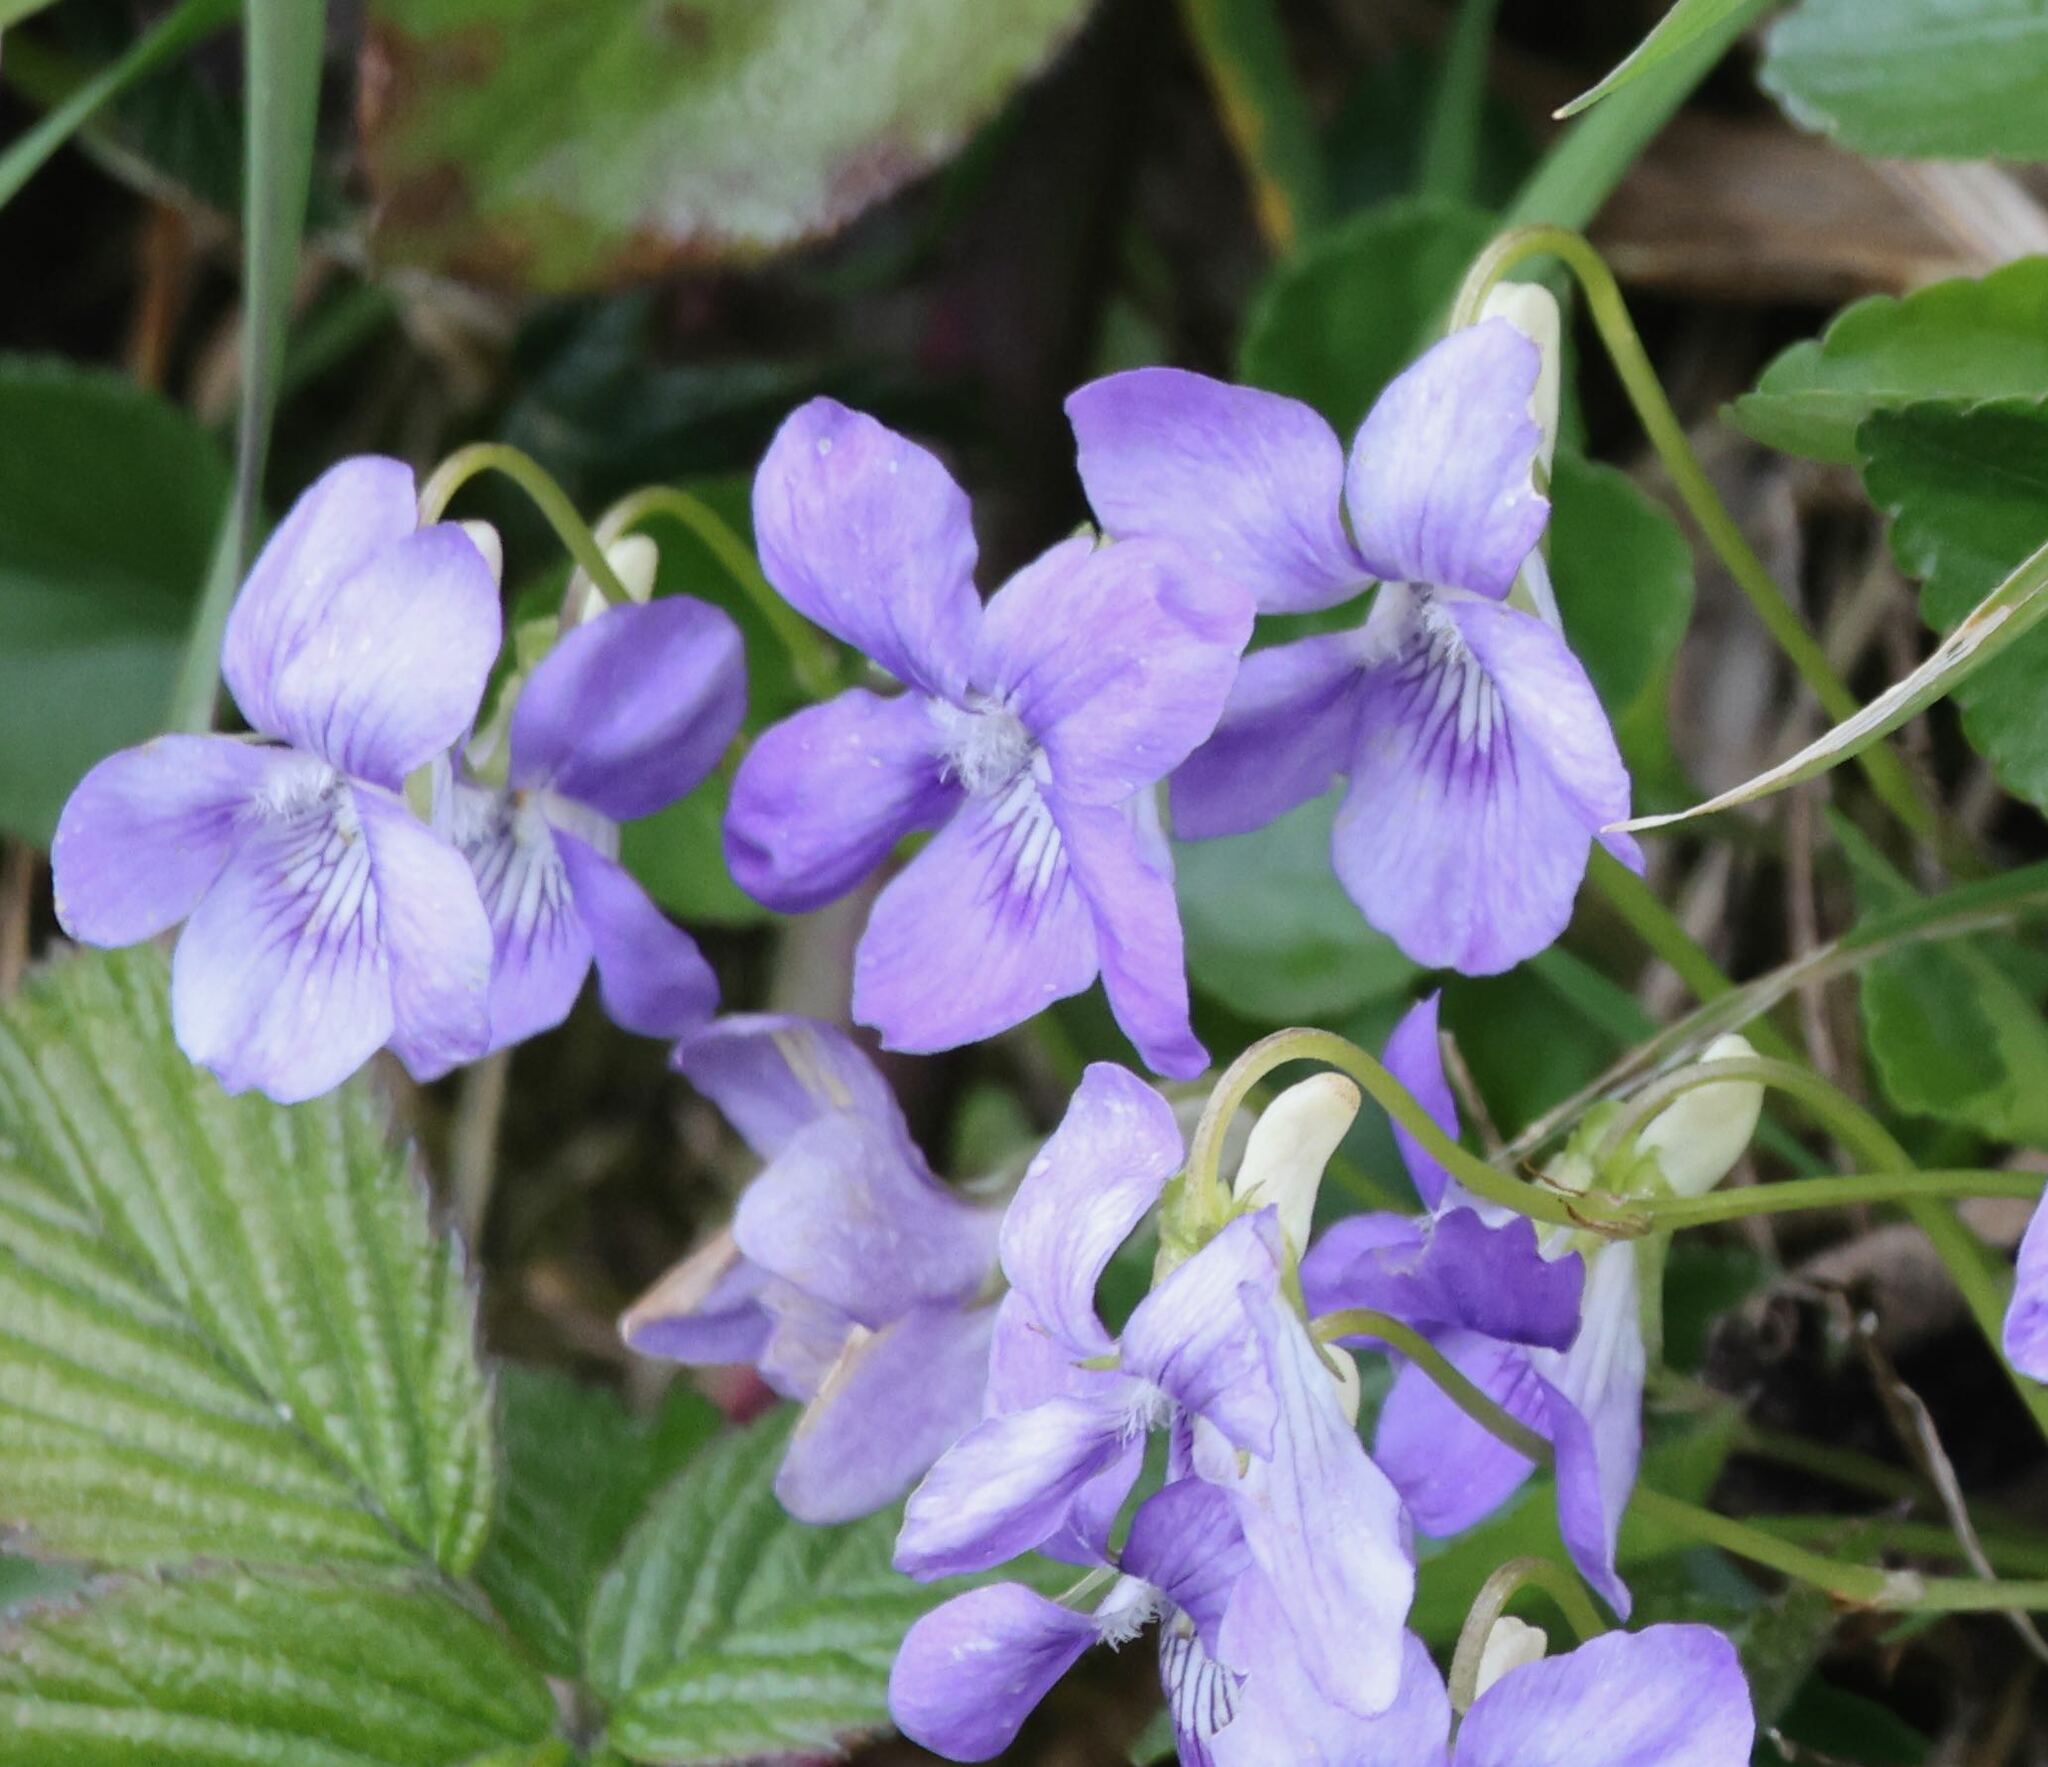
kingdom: Plantae
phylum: Tracheophyta
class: Magnoliopsida
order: Malpighiales
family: Violaceae
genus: Viola
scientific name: Viola riviniana
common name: Common dog-violet
